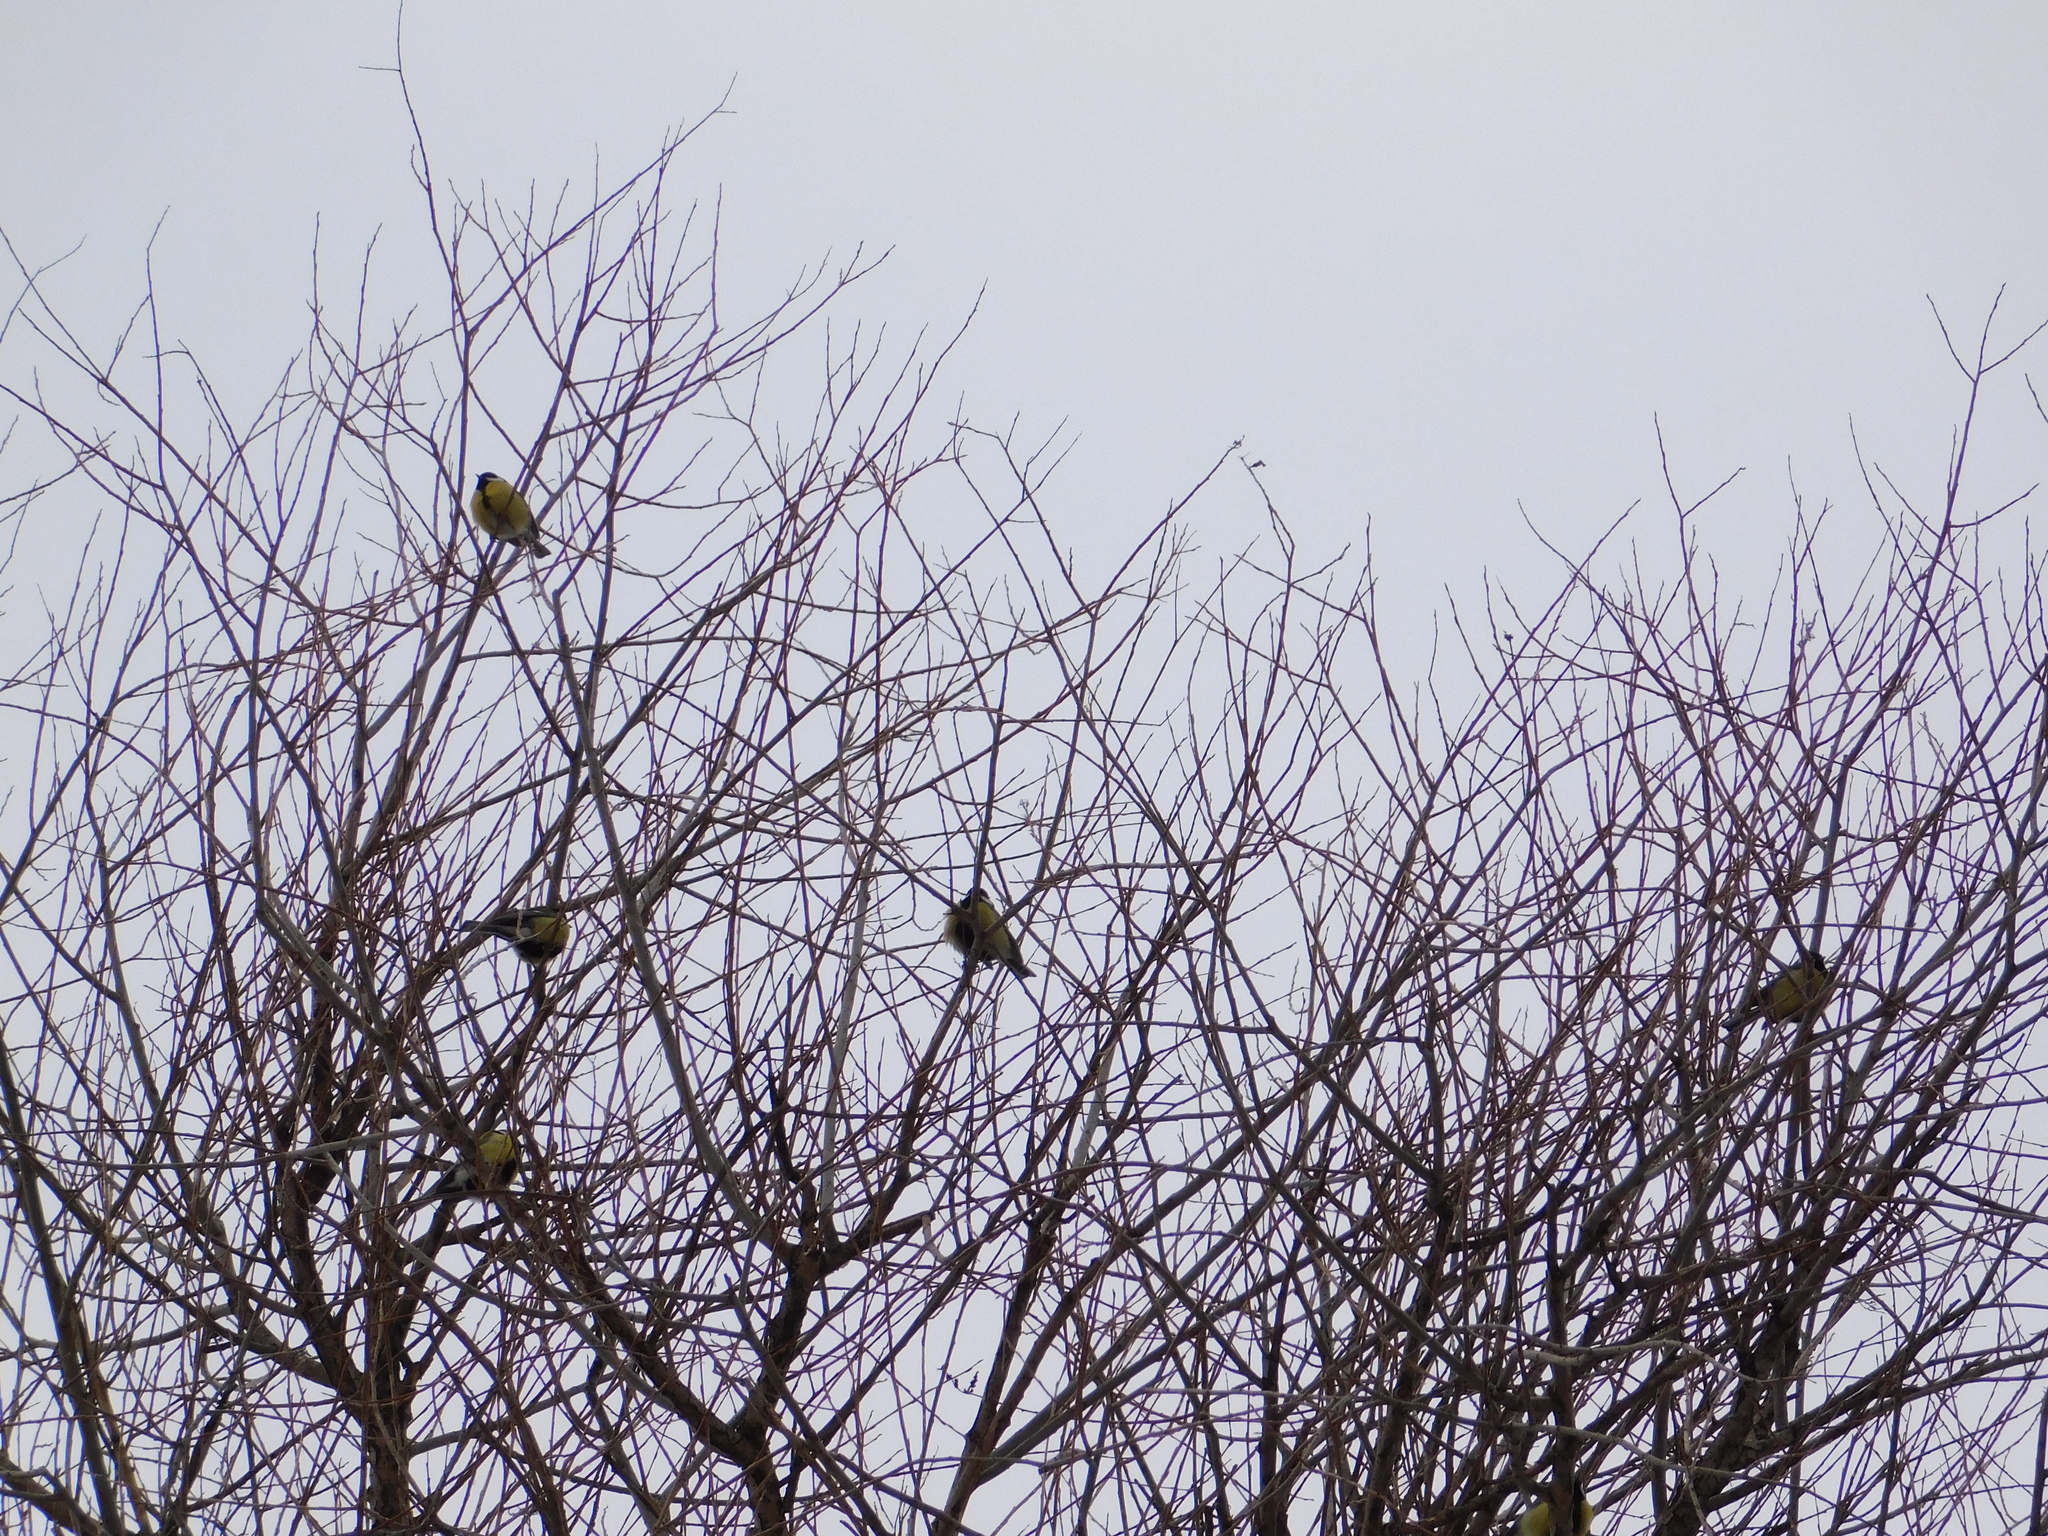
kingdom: Animalia
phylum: Chordata
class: Aves
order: Passeriformes
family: Paridae
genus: Parus
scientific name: Parus major
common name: Great tit
